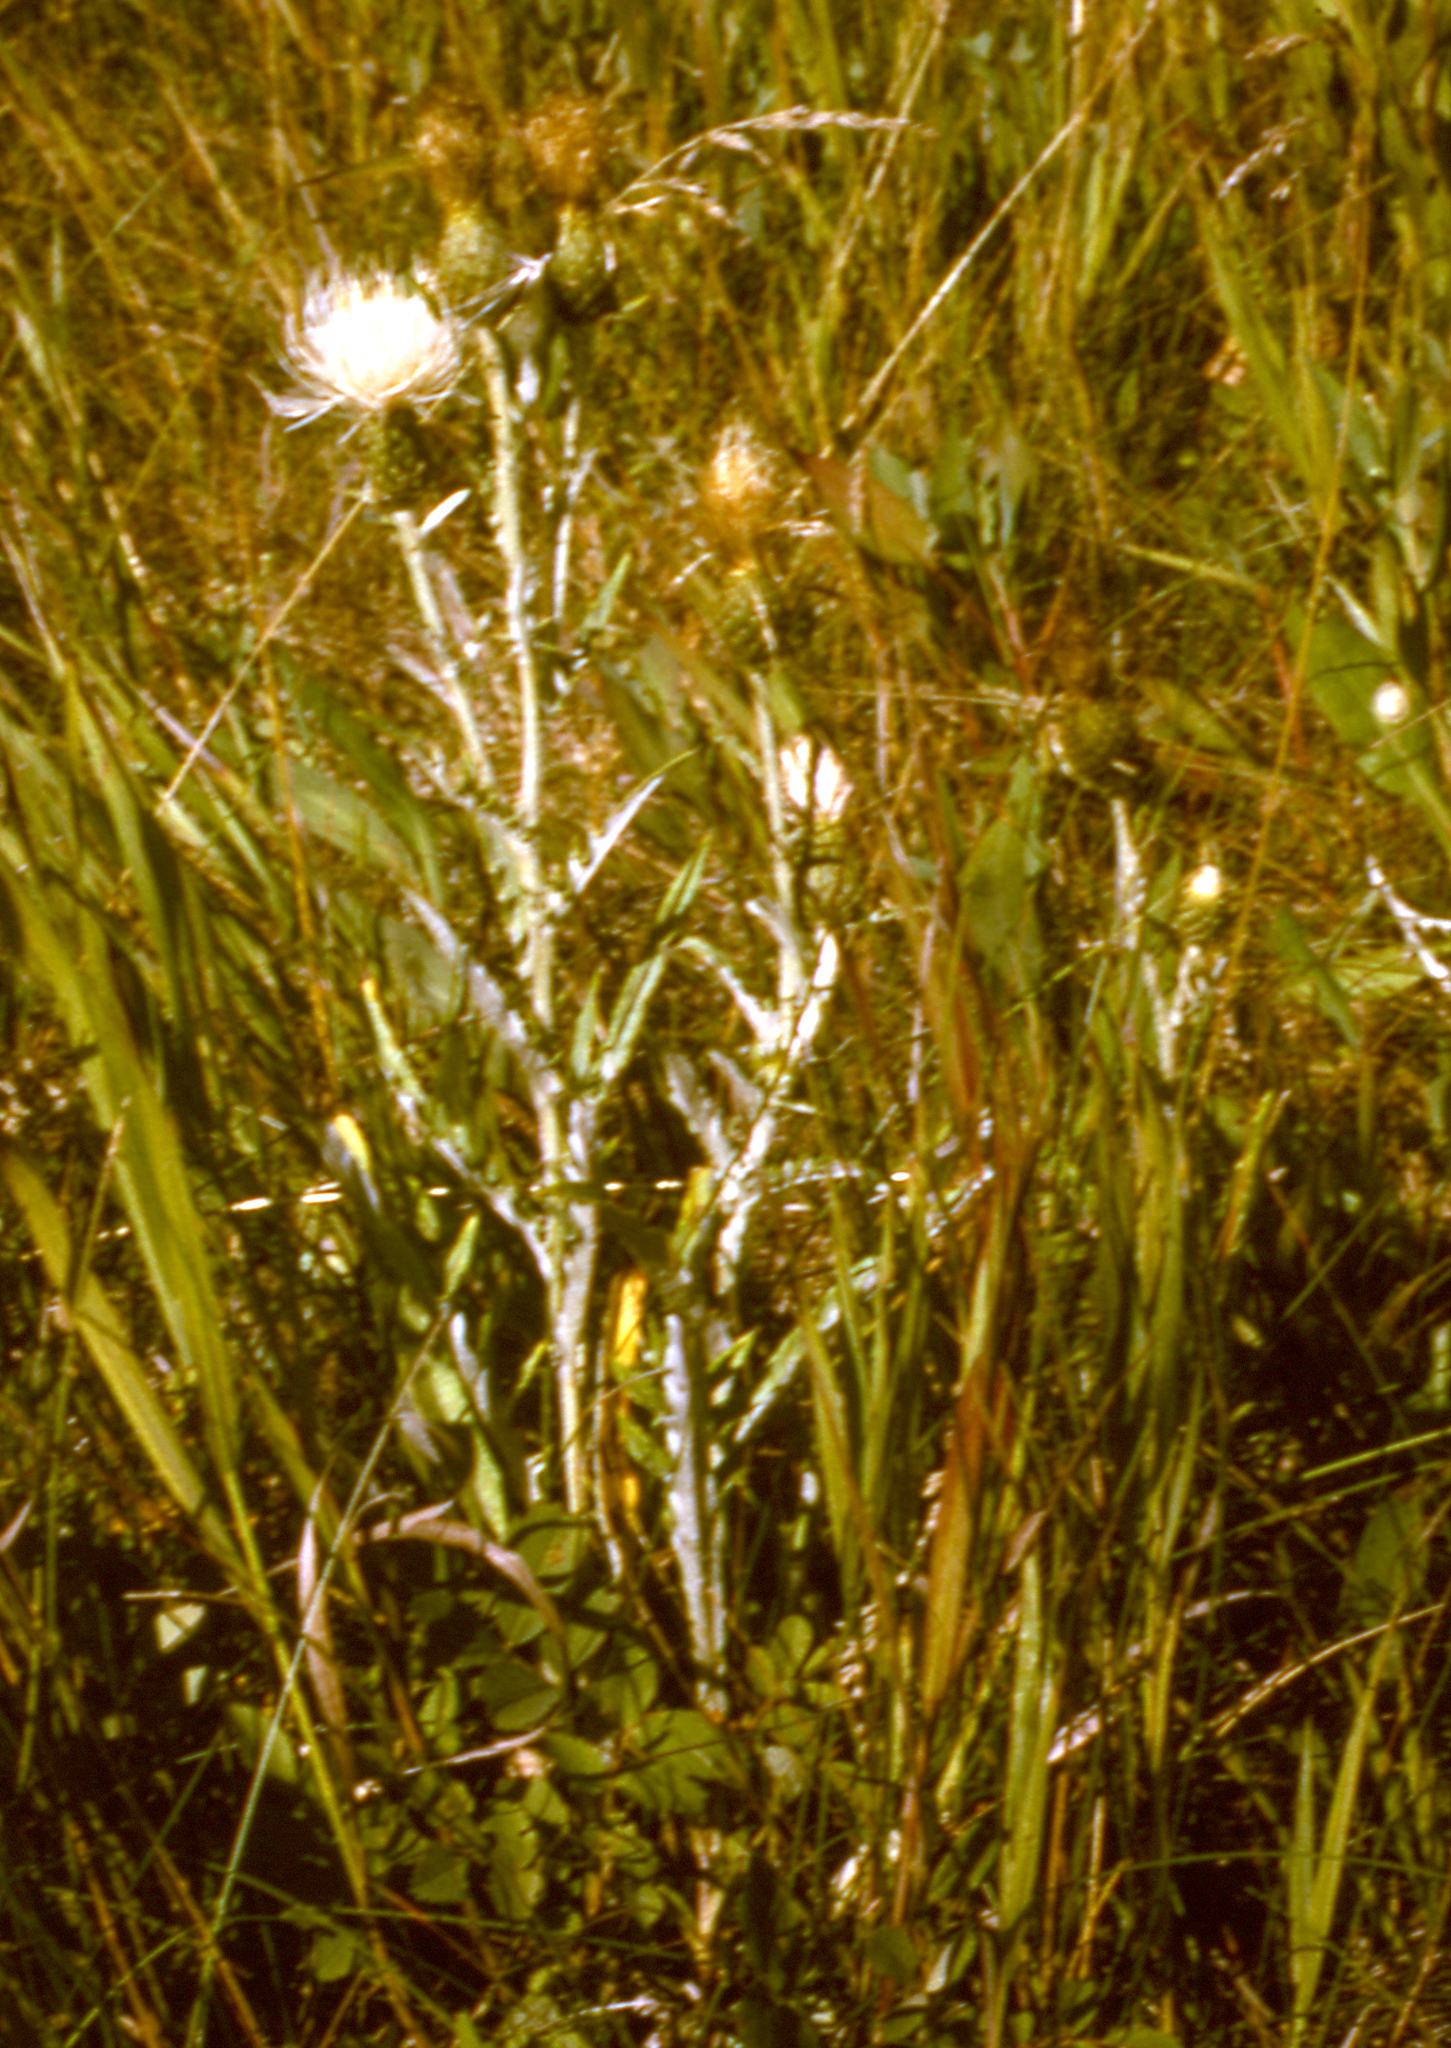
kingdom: Plantae
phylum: Tracheophyta
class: Magnoliopsida
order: Asterales
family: Asteraceae
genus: Cirsium
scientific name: Cirsium flodmanii
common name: Flodman's thistle
